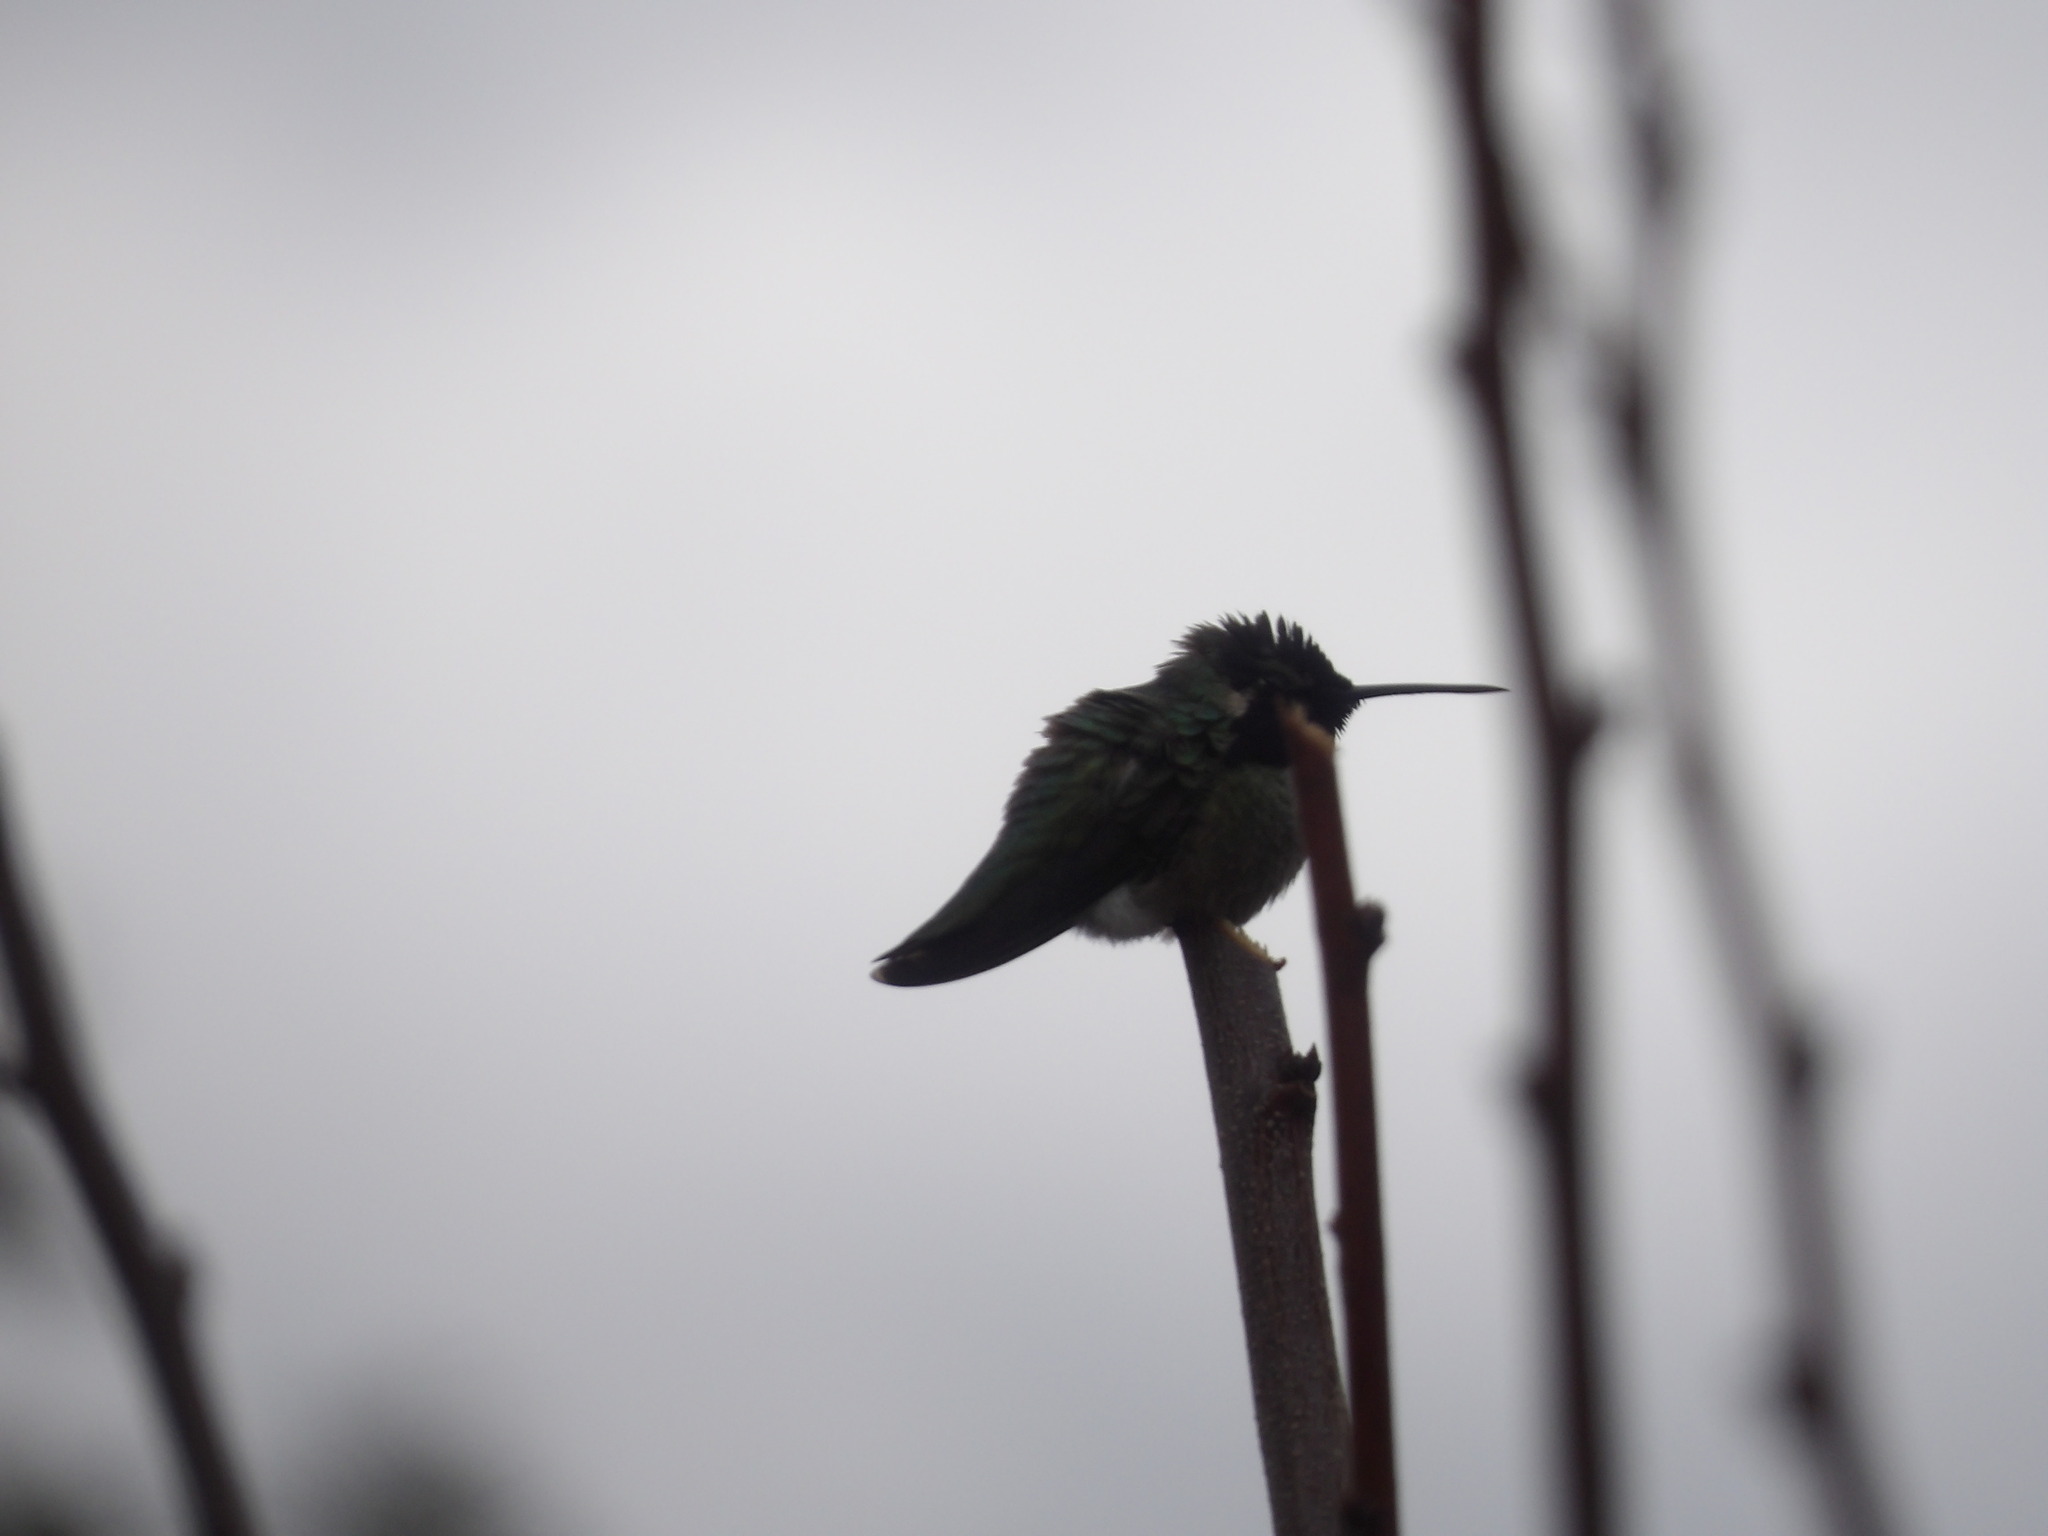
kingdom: Animalia
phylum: Chordata
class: Aves
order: Apodiformes
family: Trochilidae
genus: Calypte
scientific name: Calypte costae
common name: Costa's hummingbird
